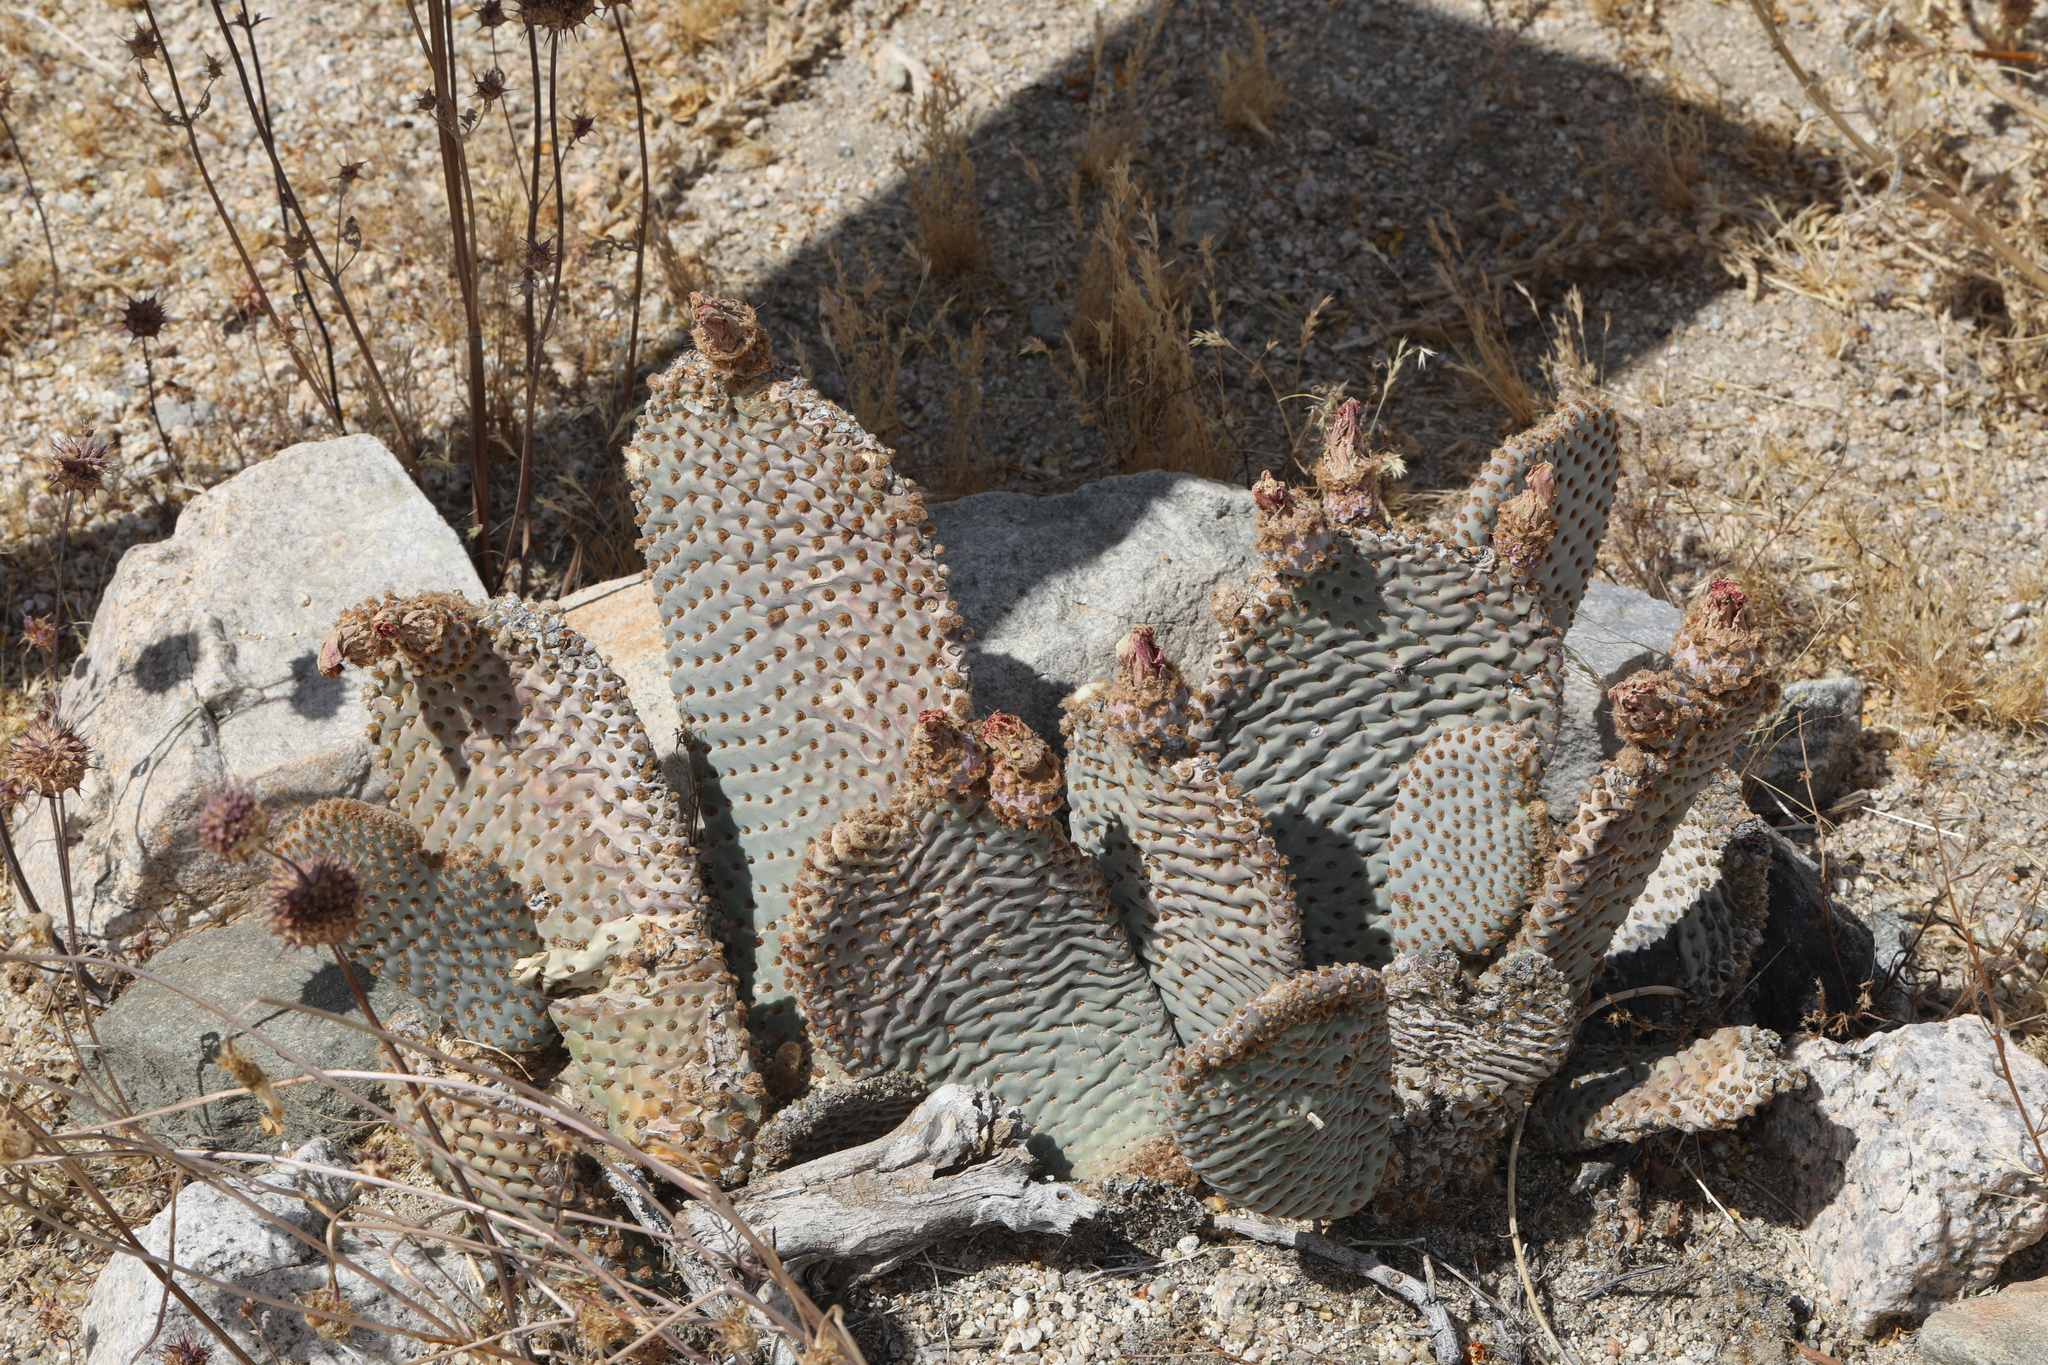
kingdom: Plantae
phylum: Tracheophyta
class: Magnoliopsida
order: Caryophyllales
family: Cactaceae
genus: Opuntia
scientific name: Opuntia basilaris
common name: Beavertail prickly-pear
